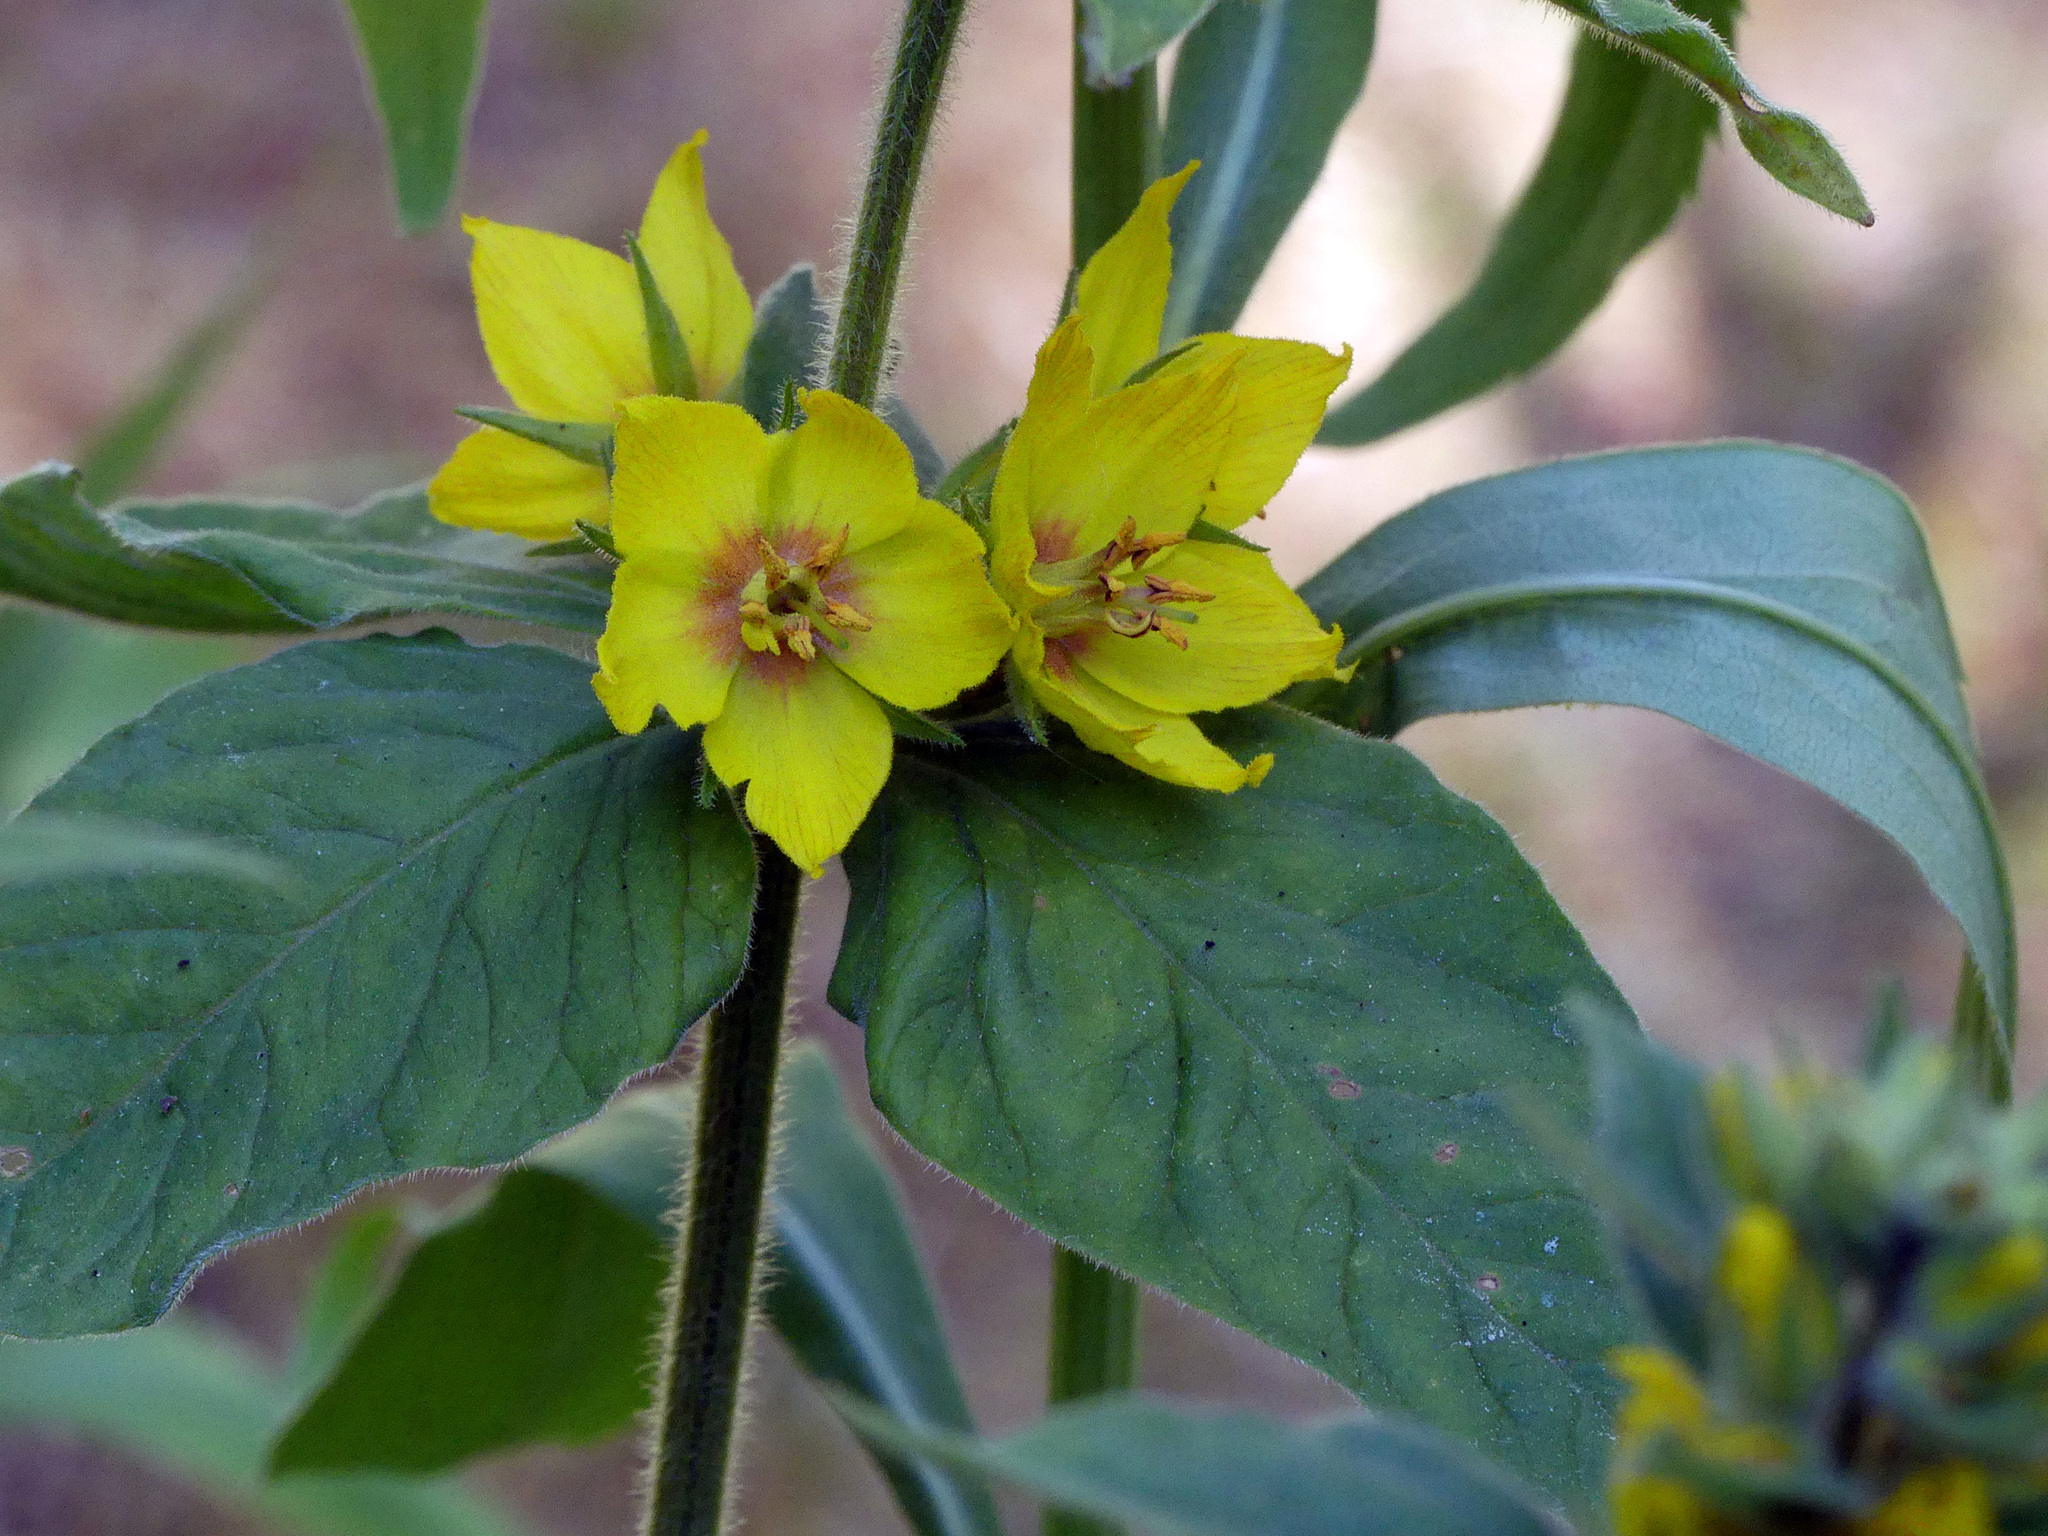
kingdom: Plantae
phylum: Tracheophyta
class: Magnoliopsida
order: Ericales
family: Primulaceae
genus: Lysimachia
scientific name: Lysimachia punctata
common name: Dotted loosestrife
